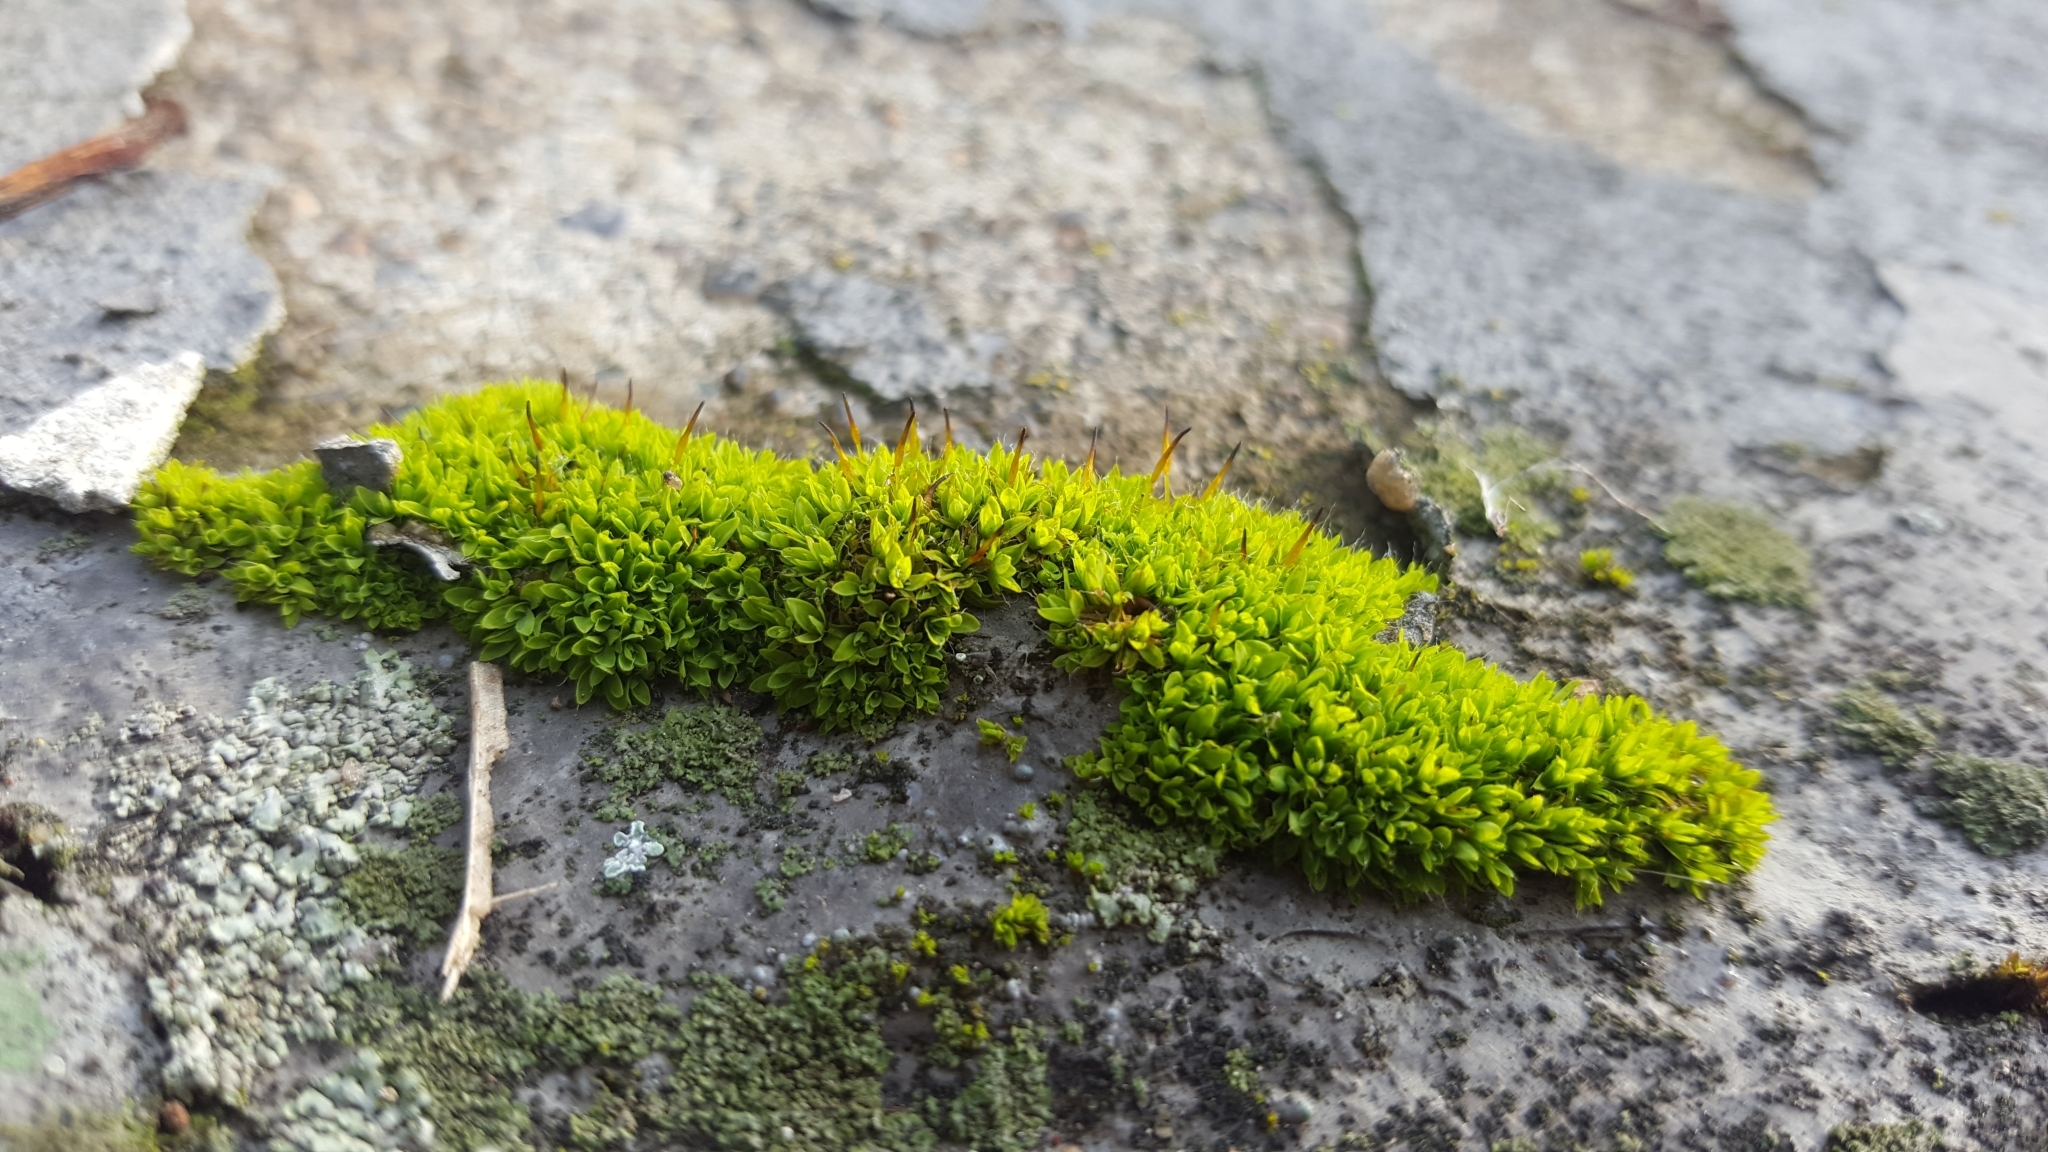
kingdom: Plantae
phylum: Bryophyta
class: Bryopsida
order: Pottiales
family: Pottiaceae
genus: Tortula
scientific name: Tortula muralis
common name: Wall screw-moss
